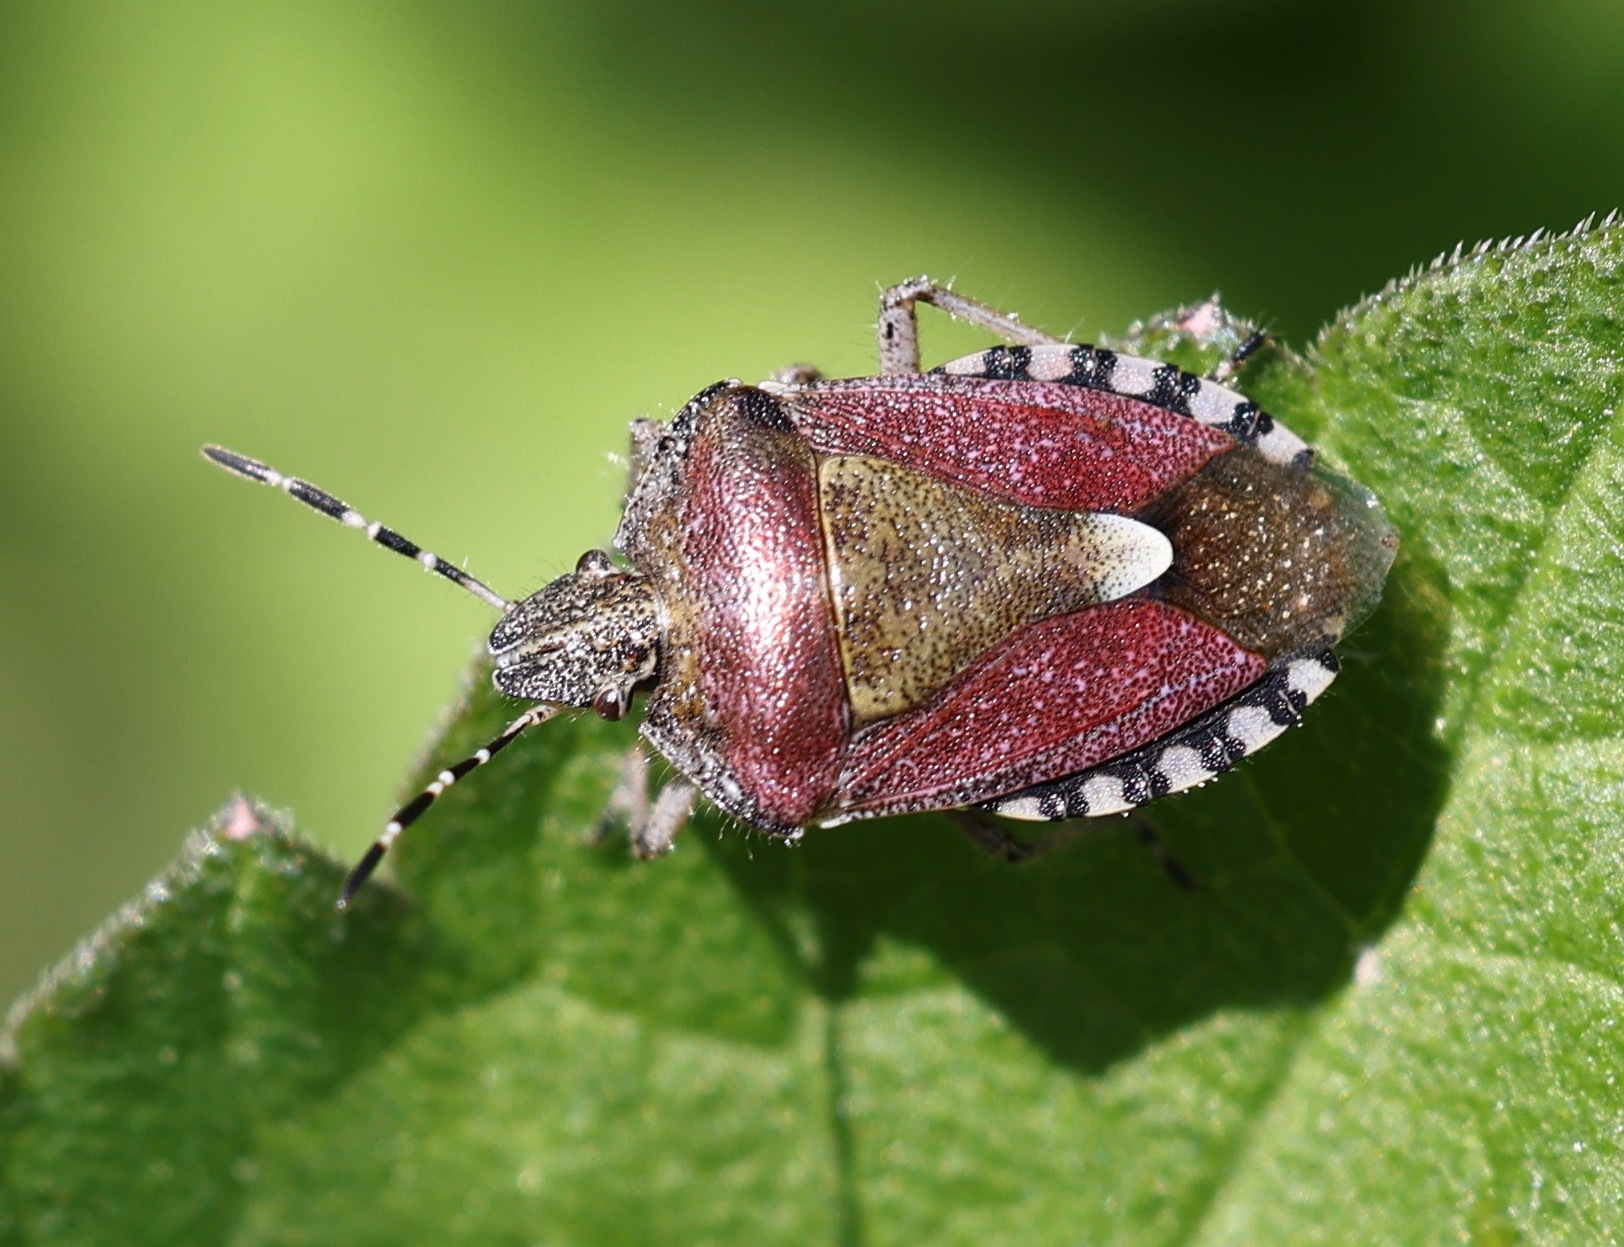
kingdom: Animalia
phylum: Arthropoda
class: Insecta
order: Hemiptera
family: Pentatomidae
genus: Dolycoris
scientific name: Dolycoris baccarum
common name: Sloe bug
